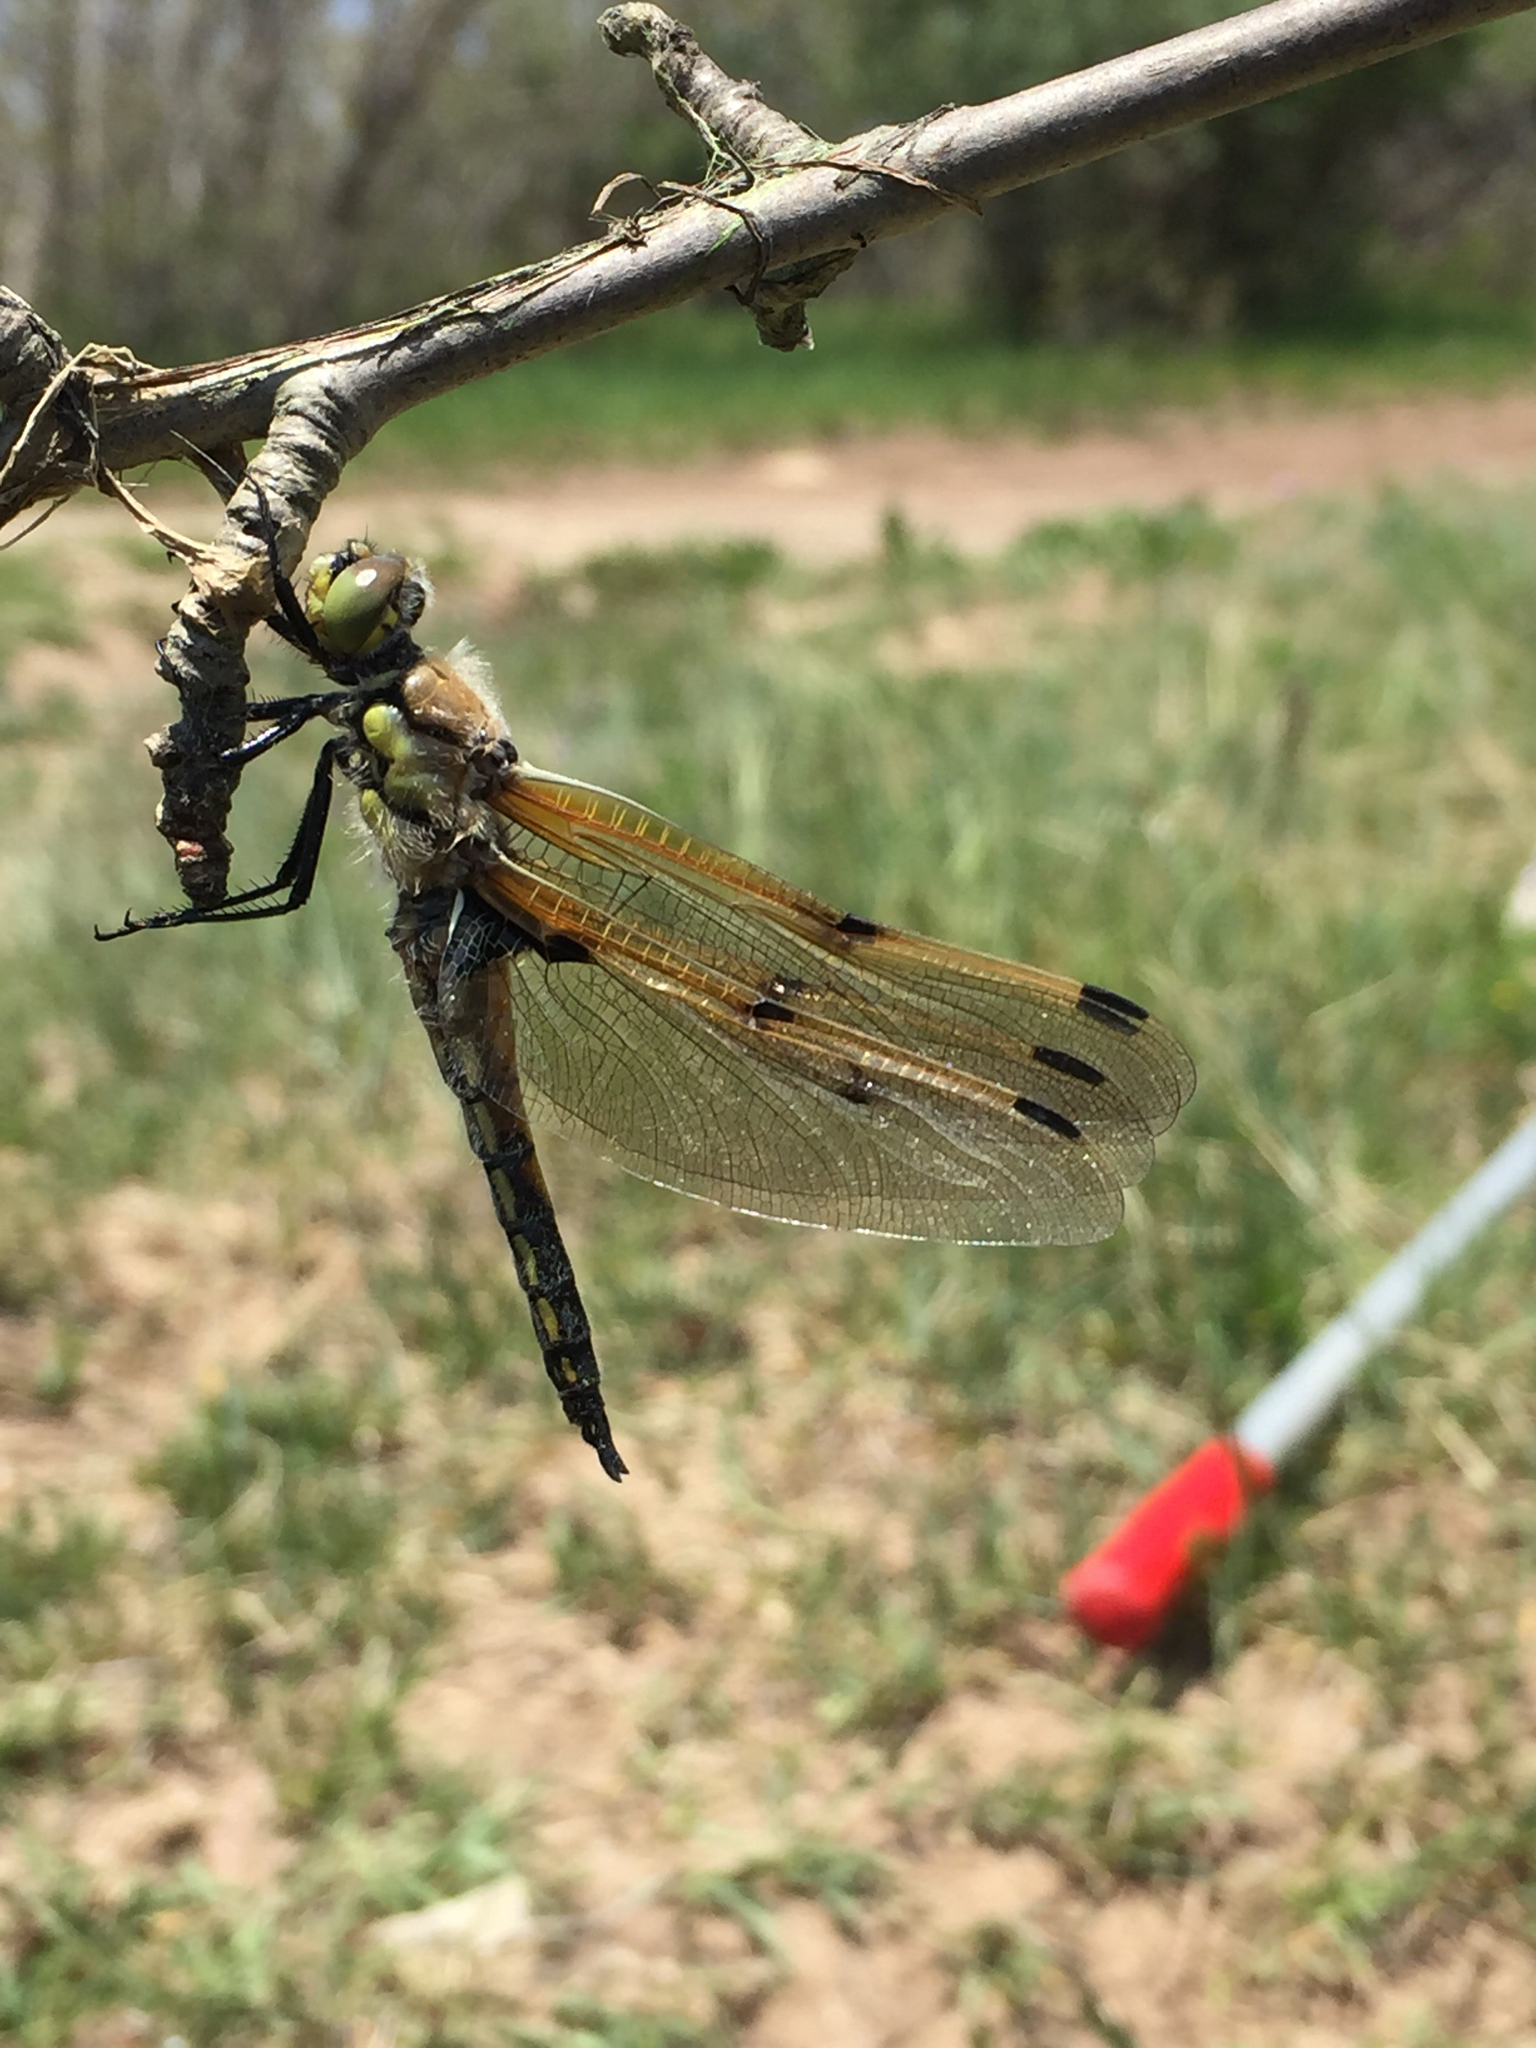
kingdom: Animalia
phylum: Arthropoda
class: Insecta
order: Odonata
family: Libellulidae
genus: Libellula
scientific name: Libellula quadrimaculata
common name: Four-spotted chaser
